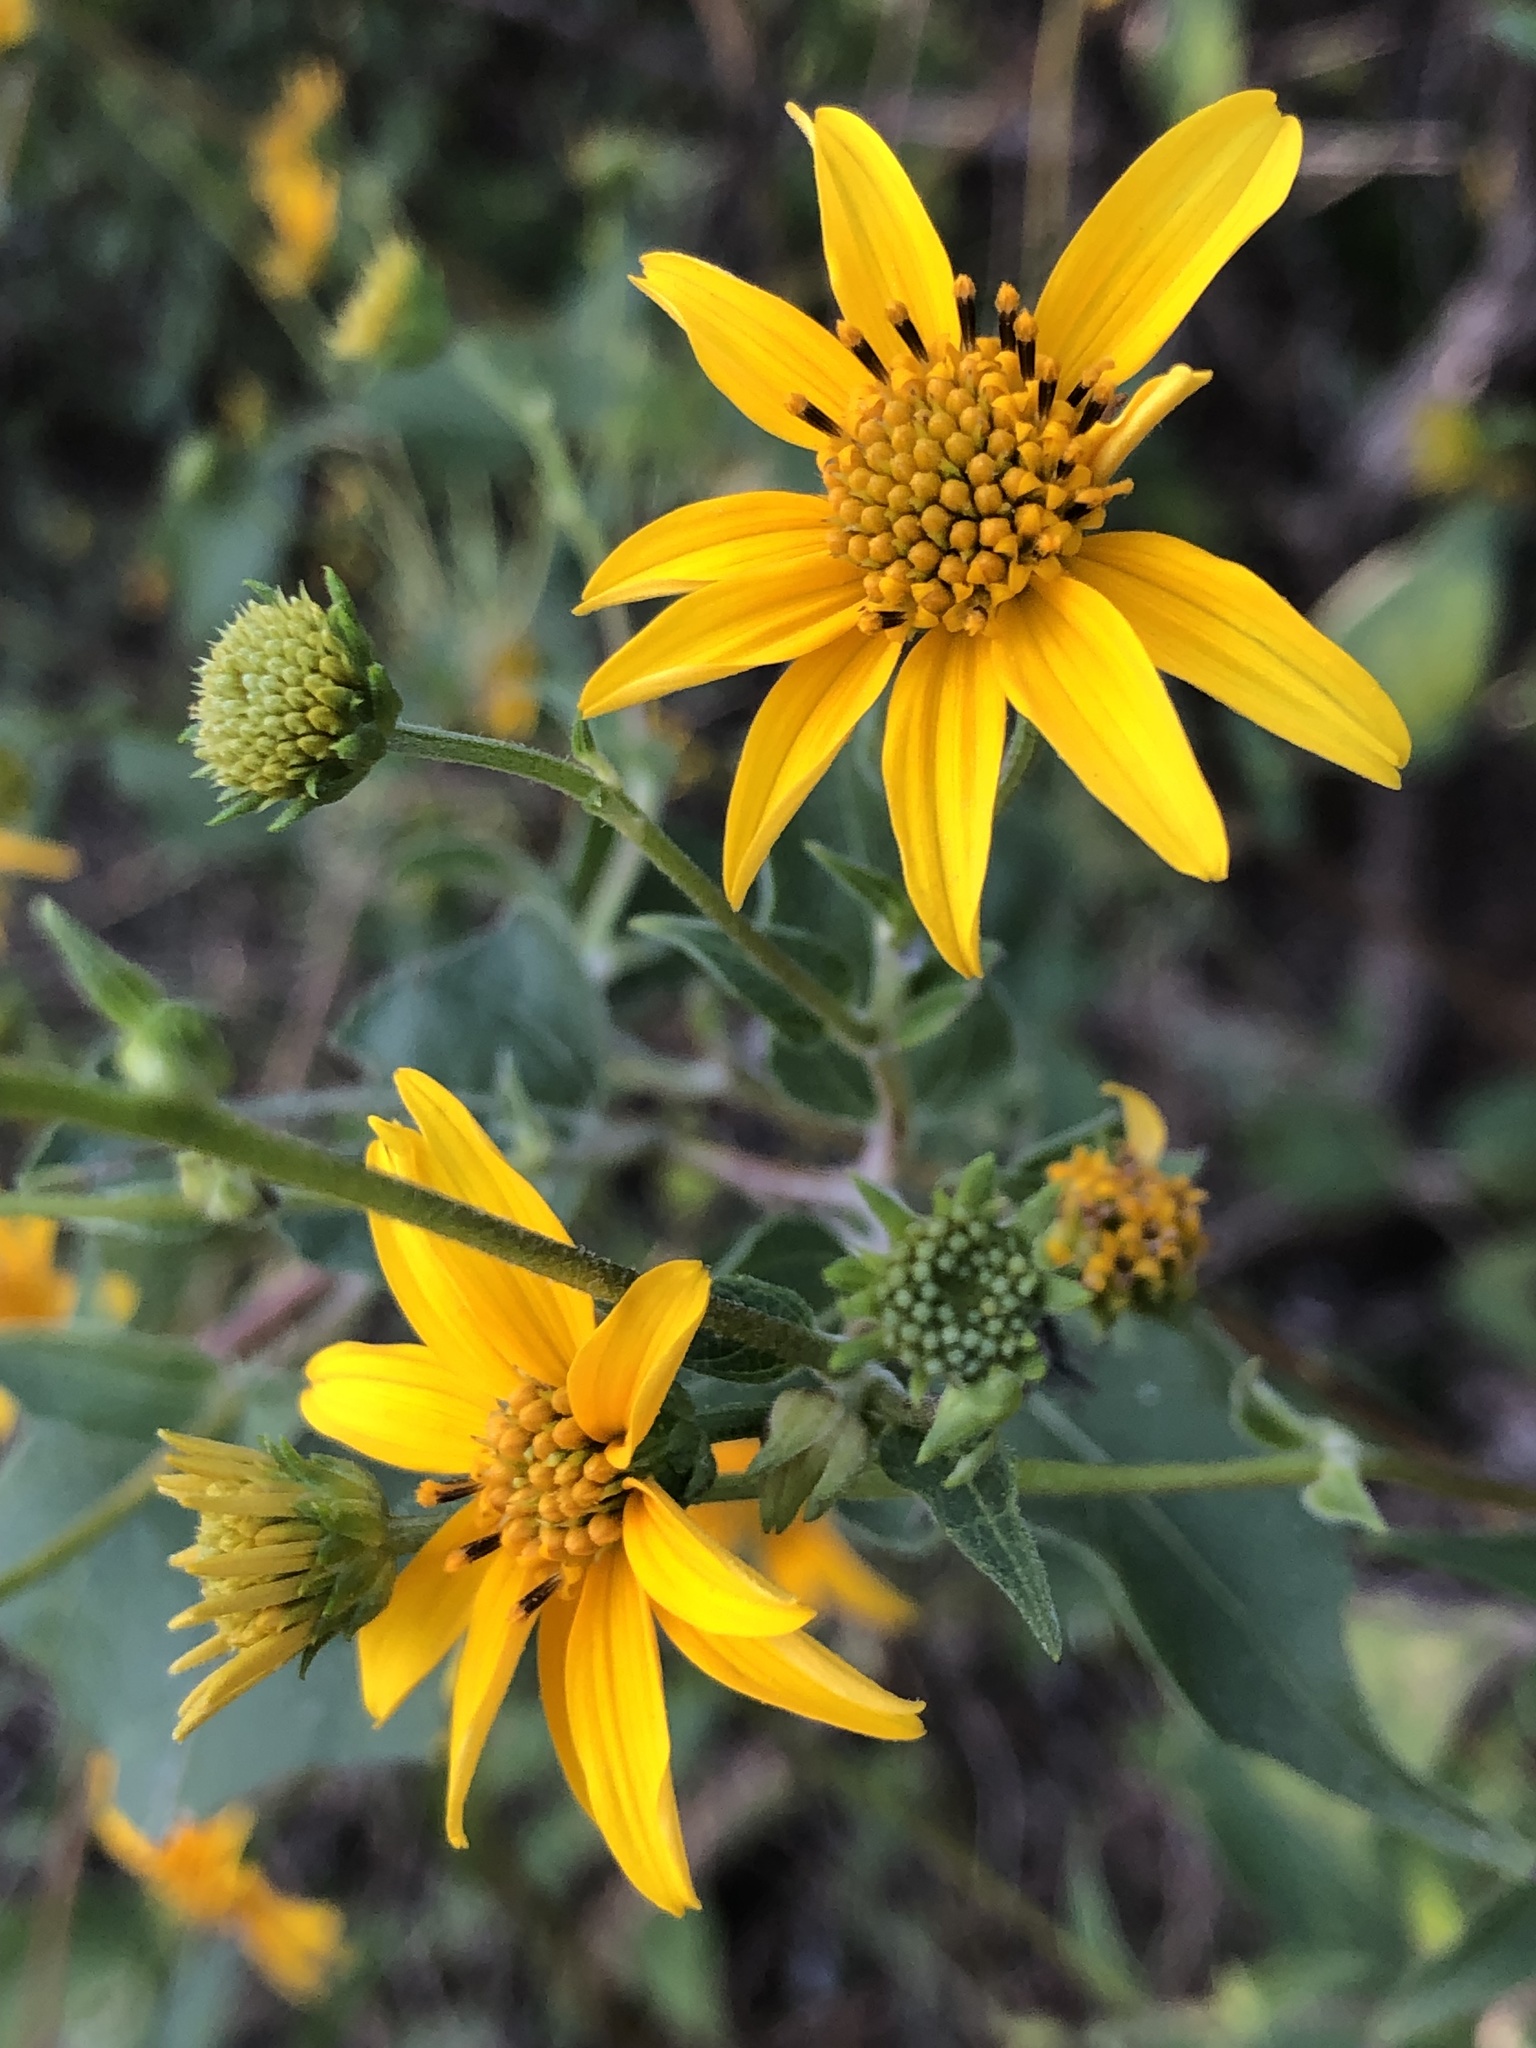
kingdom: Plantae
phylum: Tracheophyta
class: Magnoliopsida
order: Asterales
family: Asteraceae
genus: Viguiera
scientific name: Viguiera dentata
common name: Toothleaf
